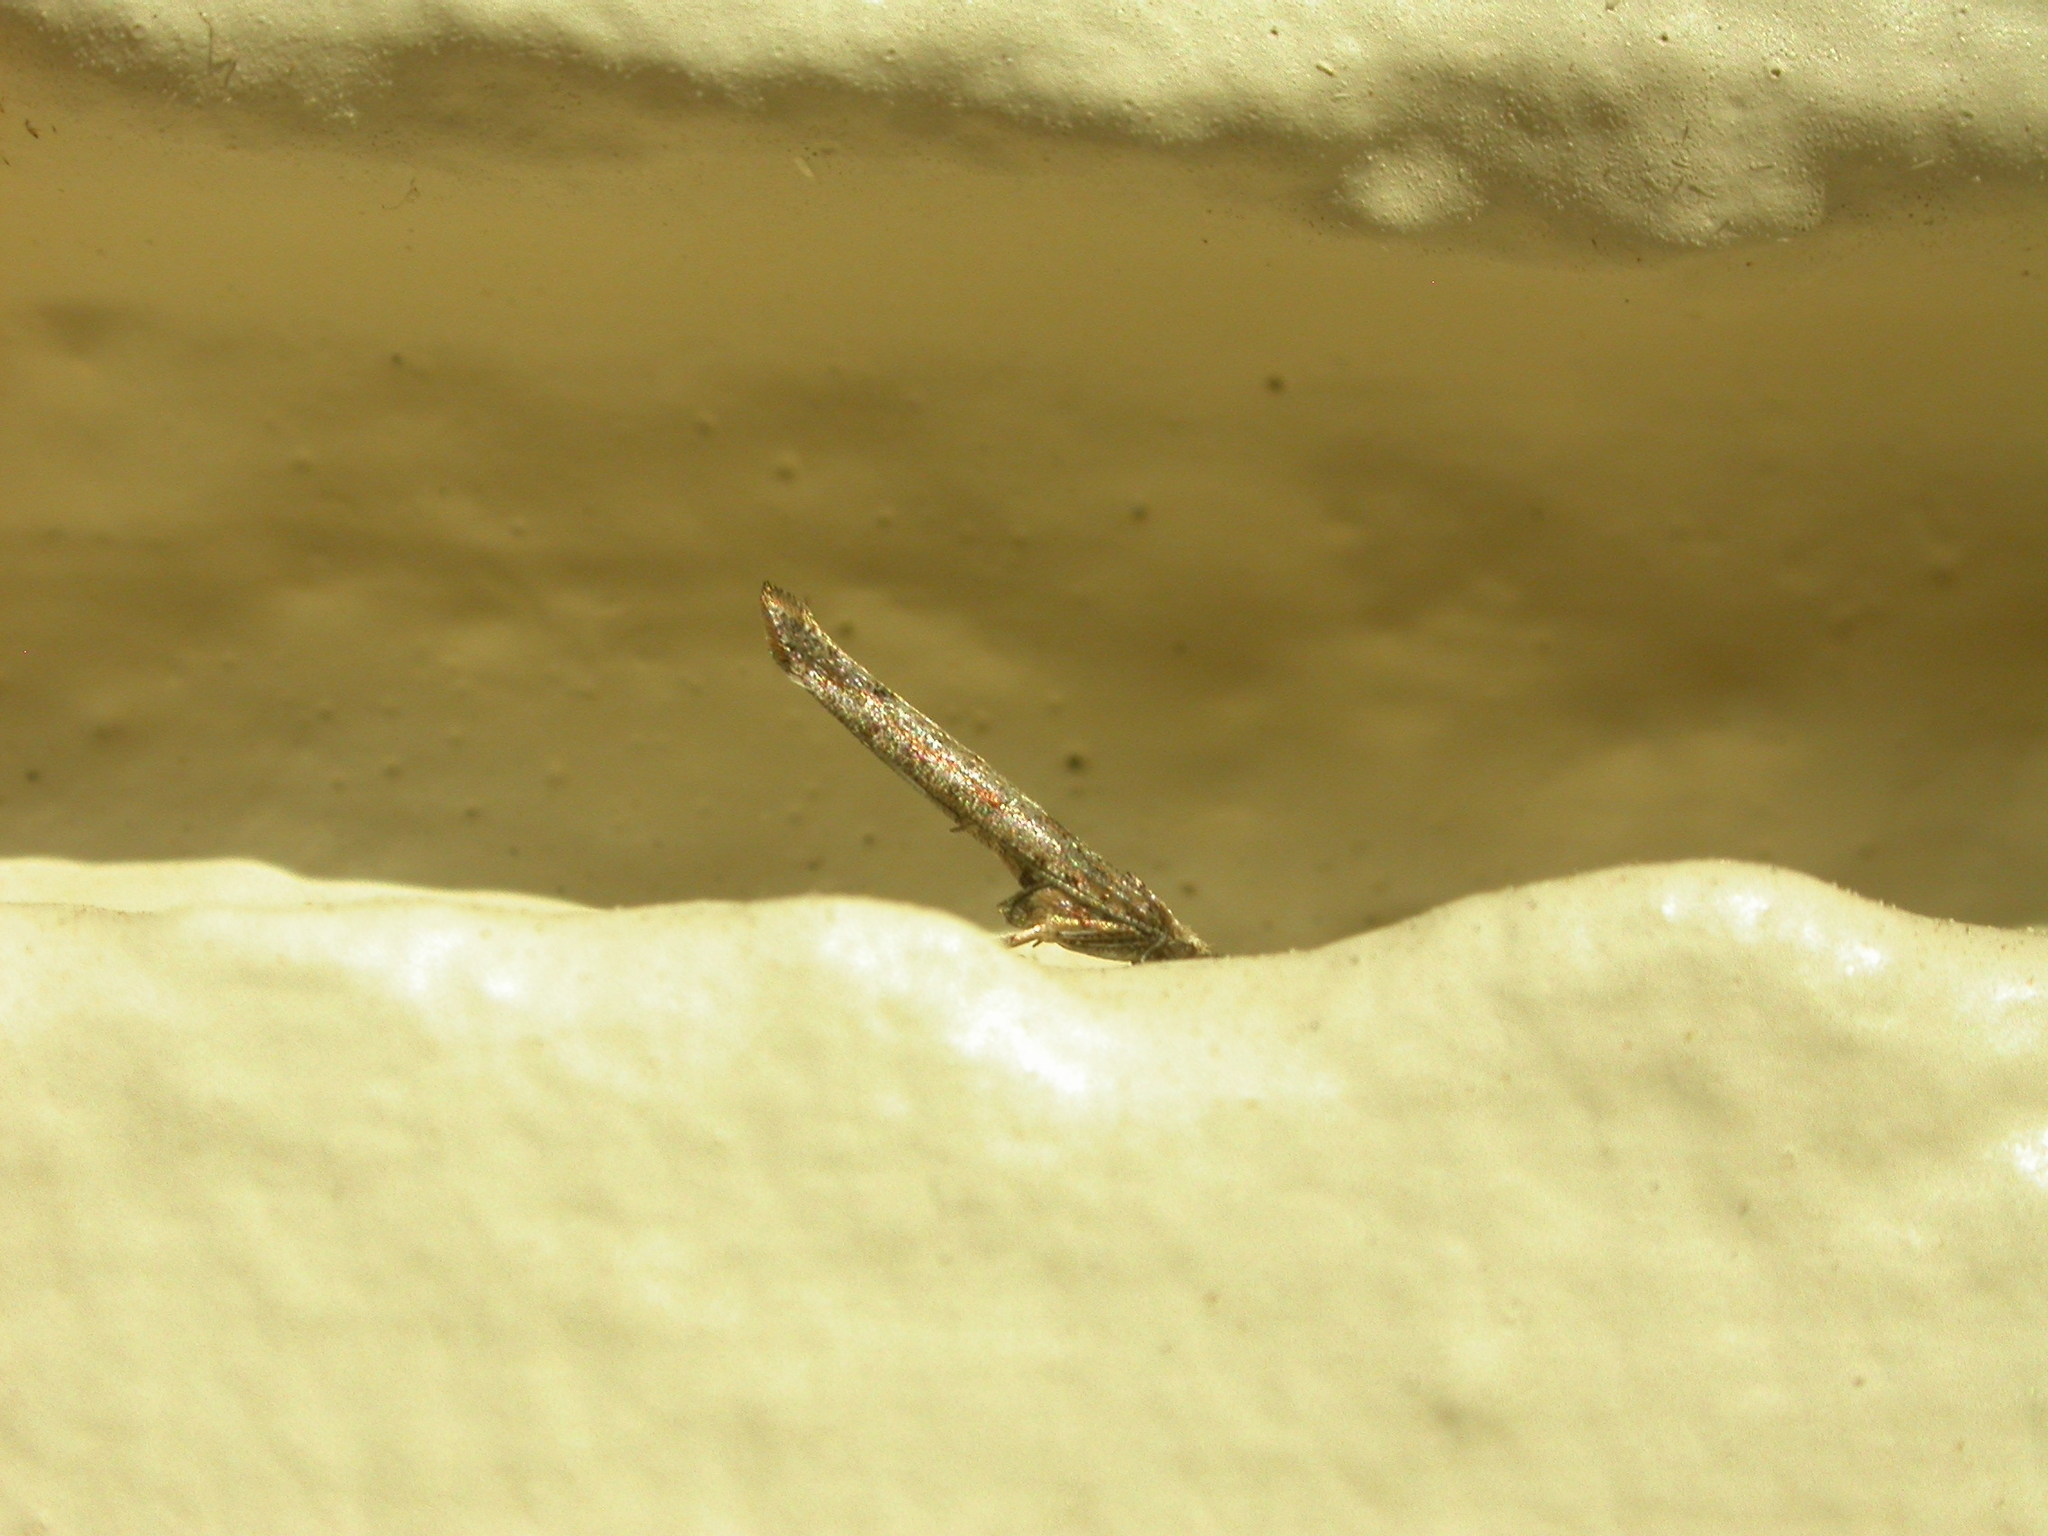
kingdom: Animalia
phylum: Arthropoda
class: Insecta
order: Lepidoptera
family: Yponomeutidae
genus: Zelleria
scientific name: Zelleria cynetica
